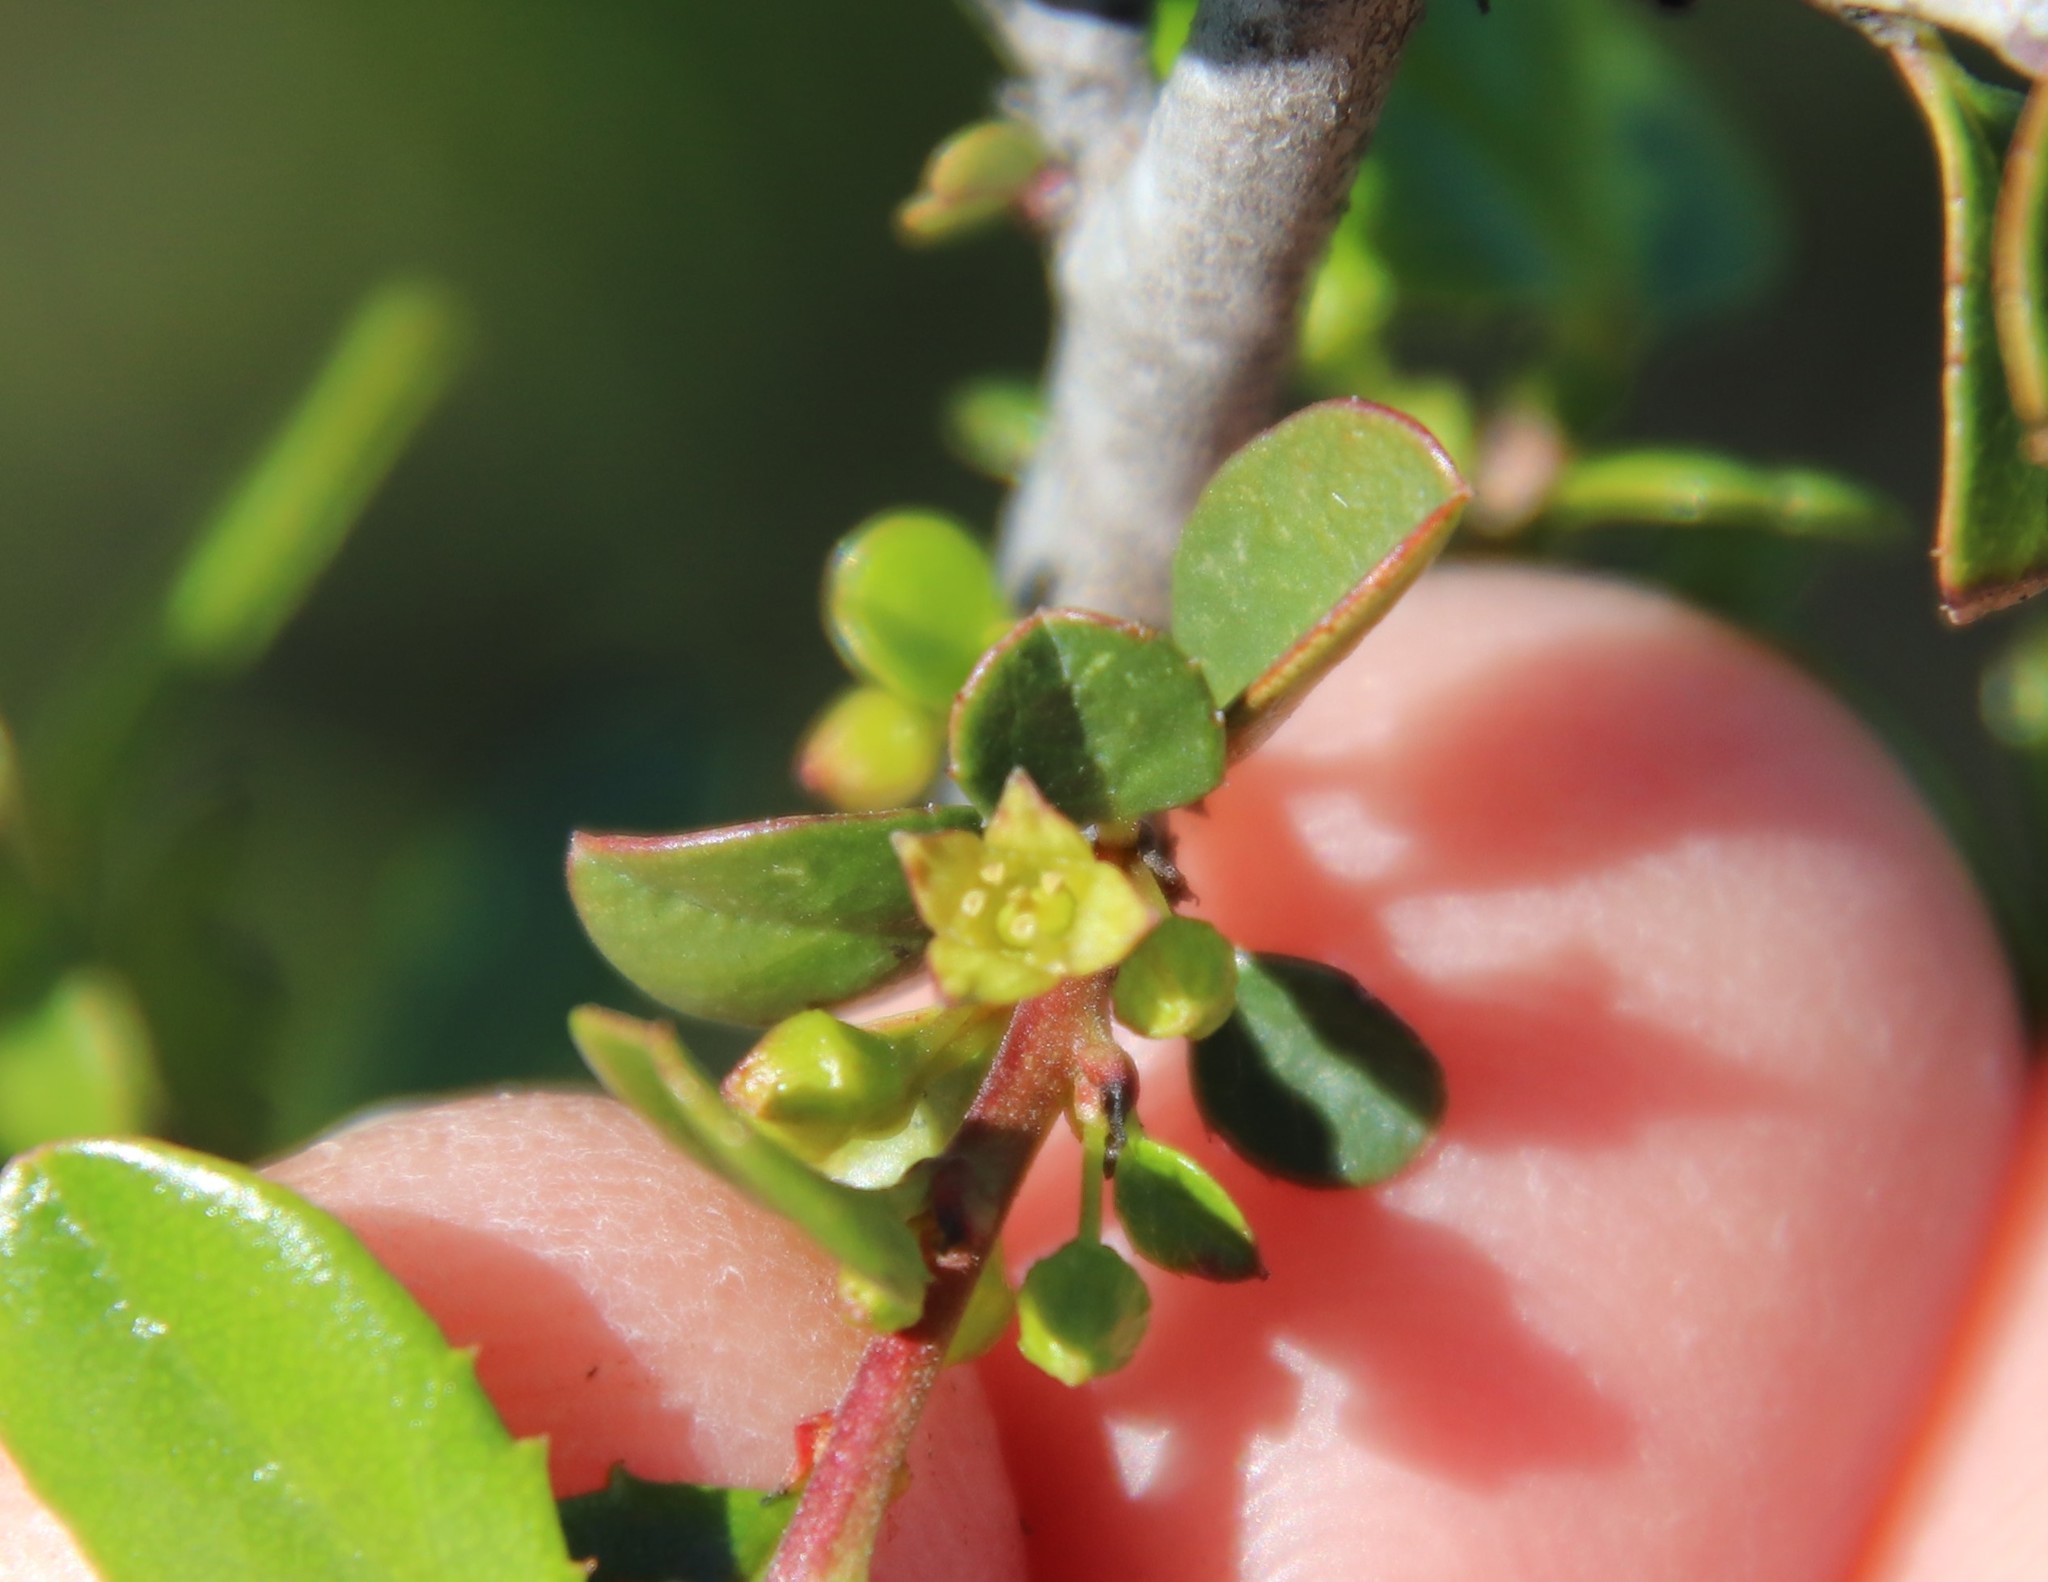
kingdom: Plantae
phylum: Tracheophyta
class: Magnoliopsida
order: Rosales
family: Rhamnaceae
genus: Endotropis
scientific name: Endotropis crocea
